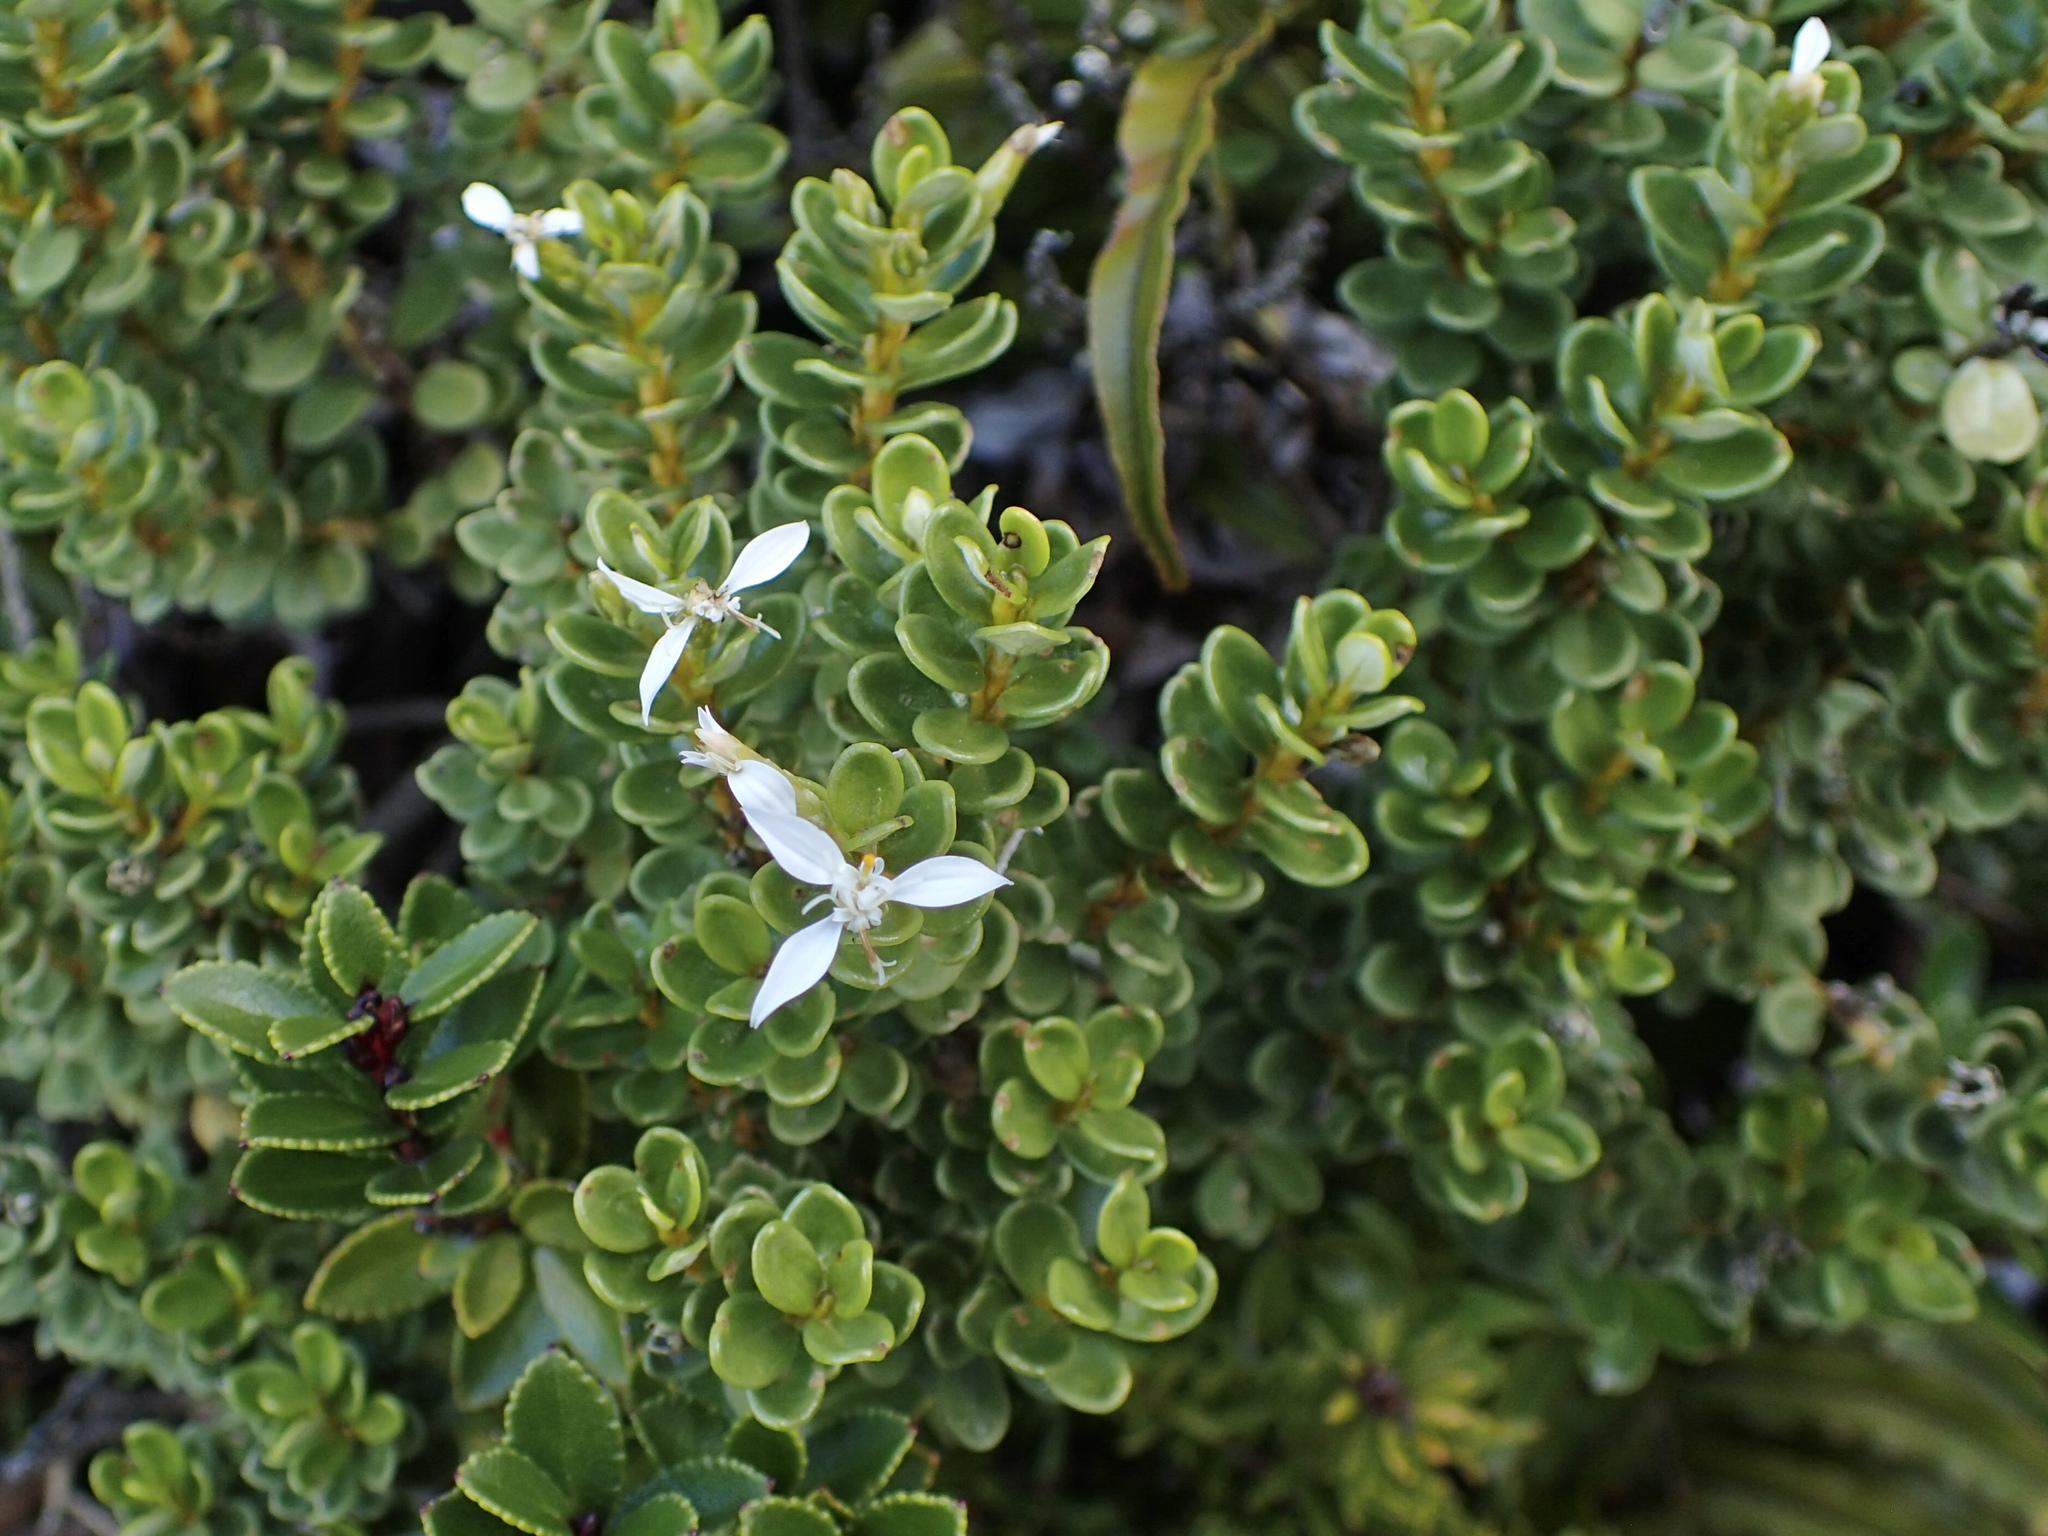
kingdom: Plantae
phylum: Tracheophyta
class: Magnoliopsida
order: Asterales
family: Asteraceae
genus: Olearia
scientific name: Olearia nummularifolia
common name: Sticky daisybush
